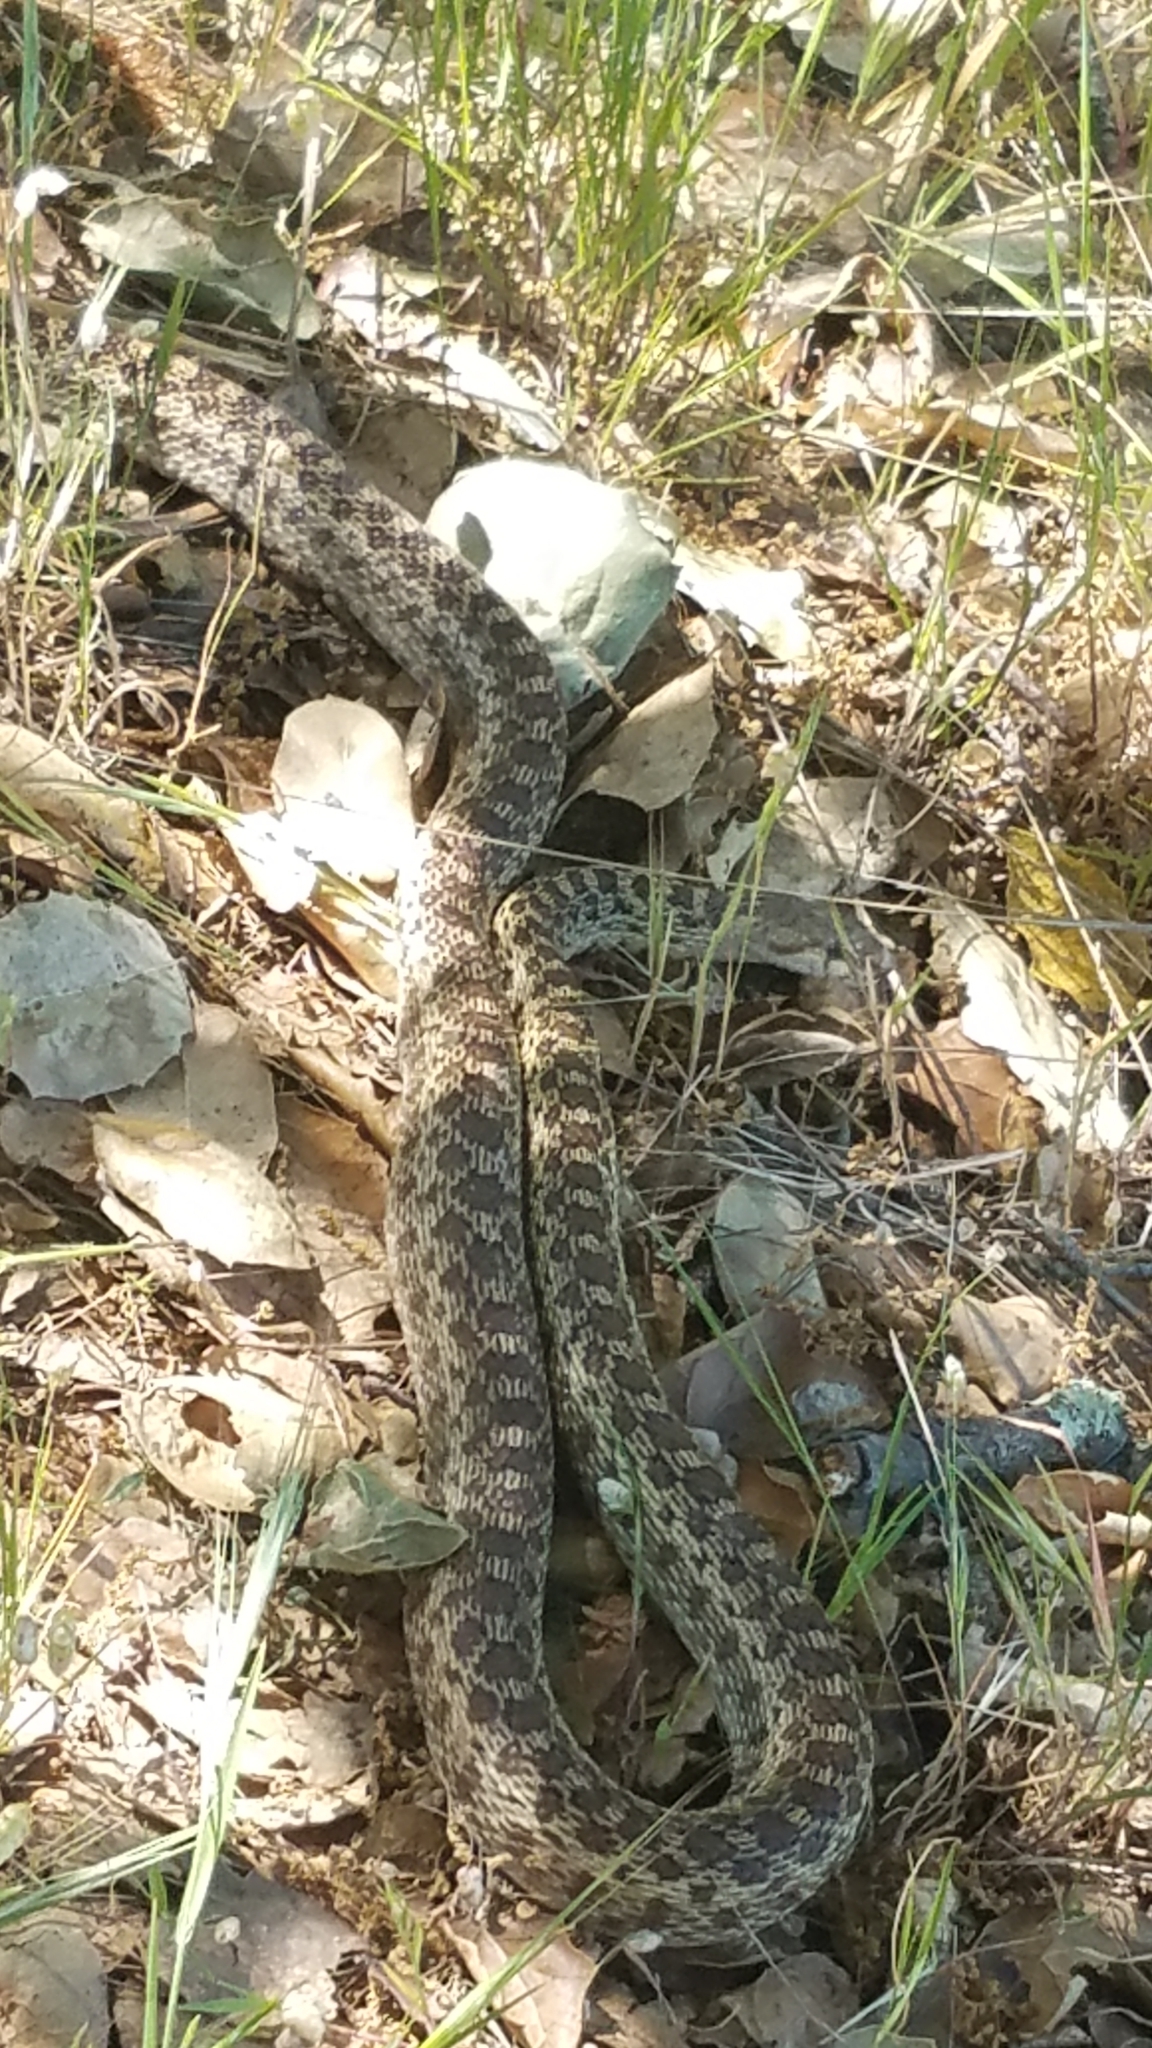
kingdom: Animalia
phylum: Chordata
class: Squamata
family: Colubridae
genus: Pituophis
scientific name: Pituophis catenifer
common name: Gopher snake
